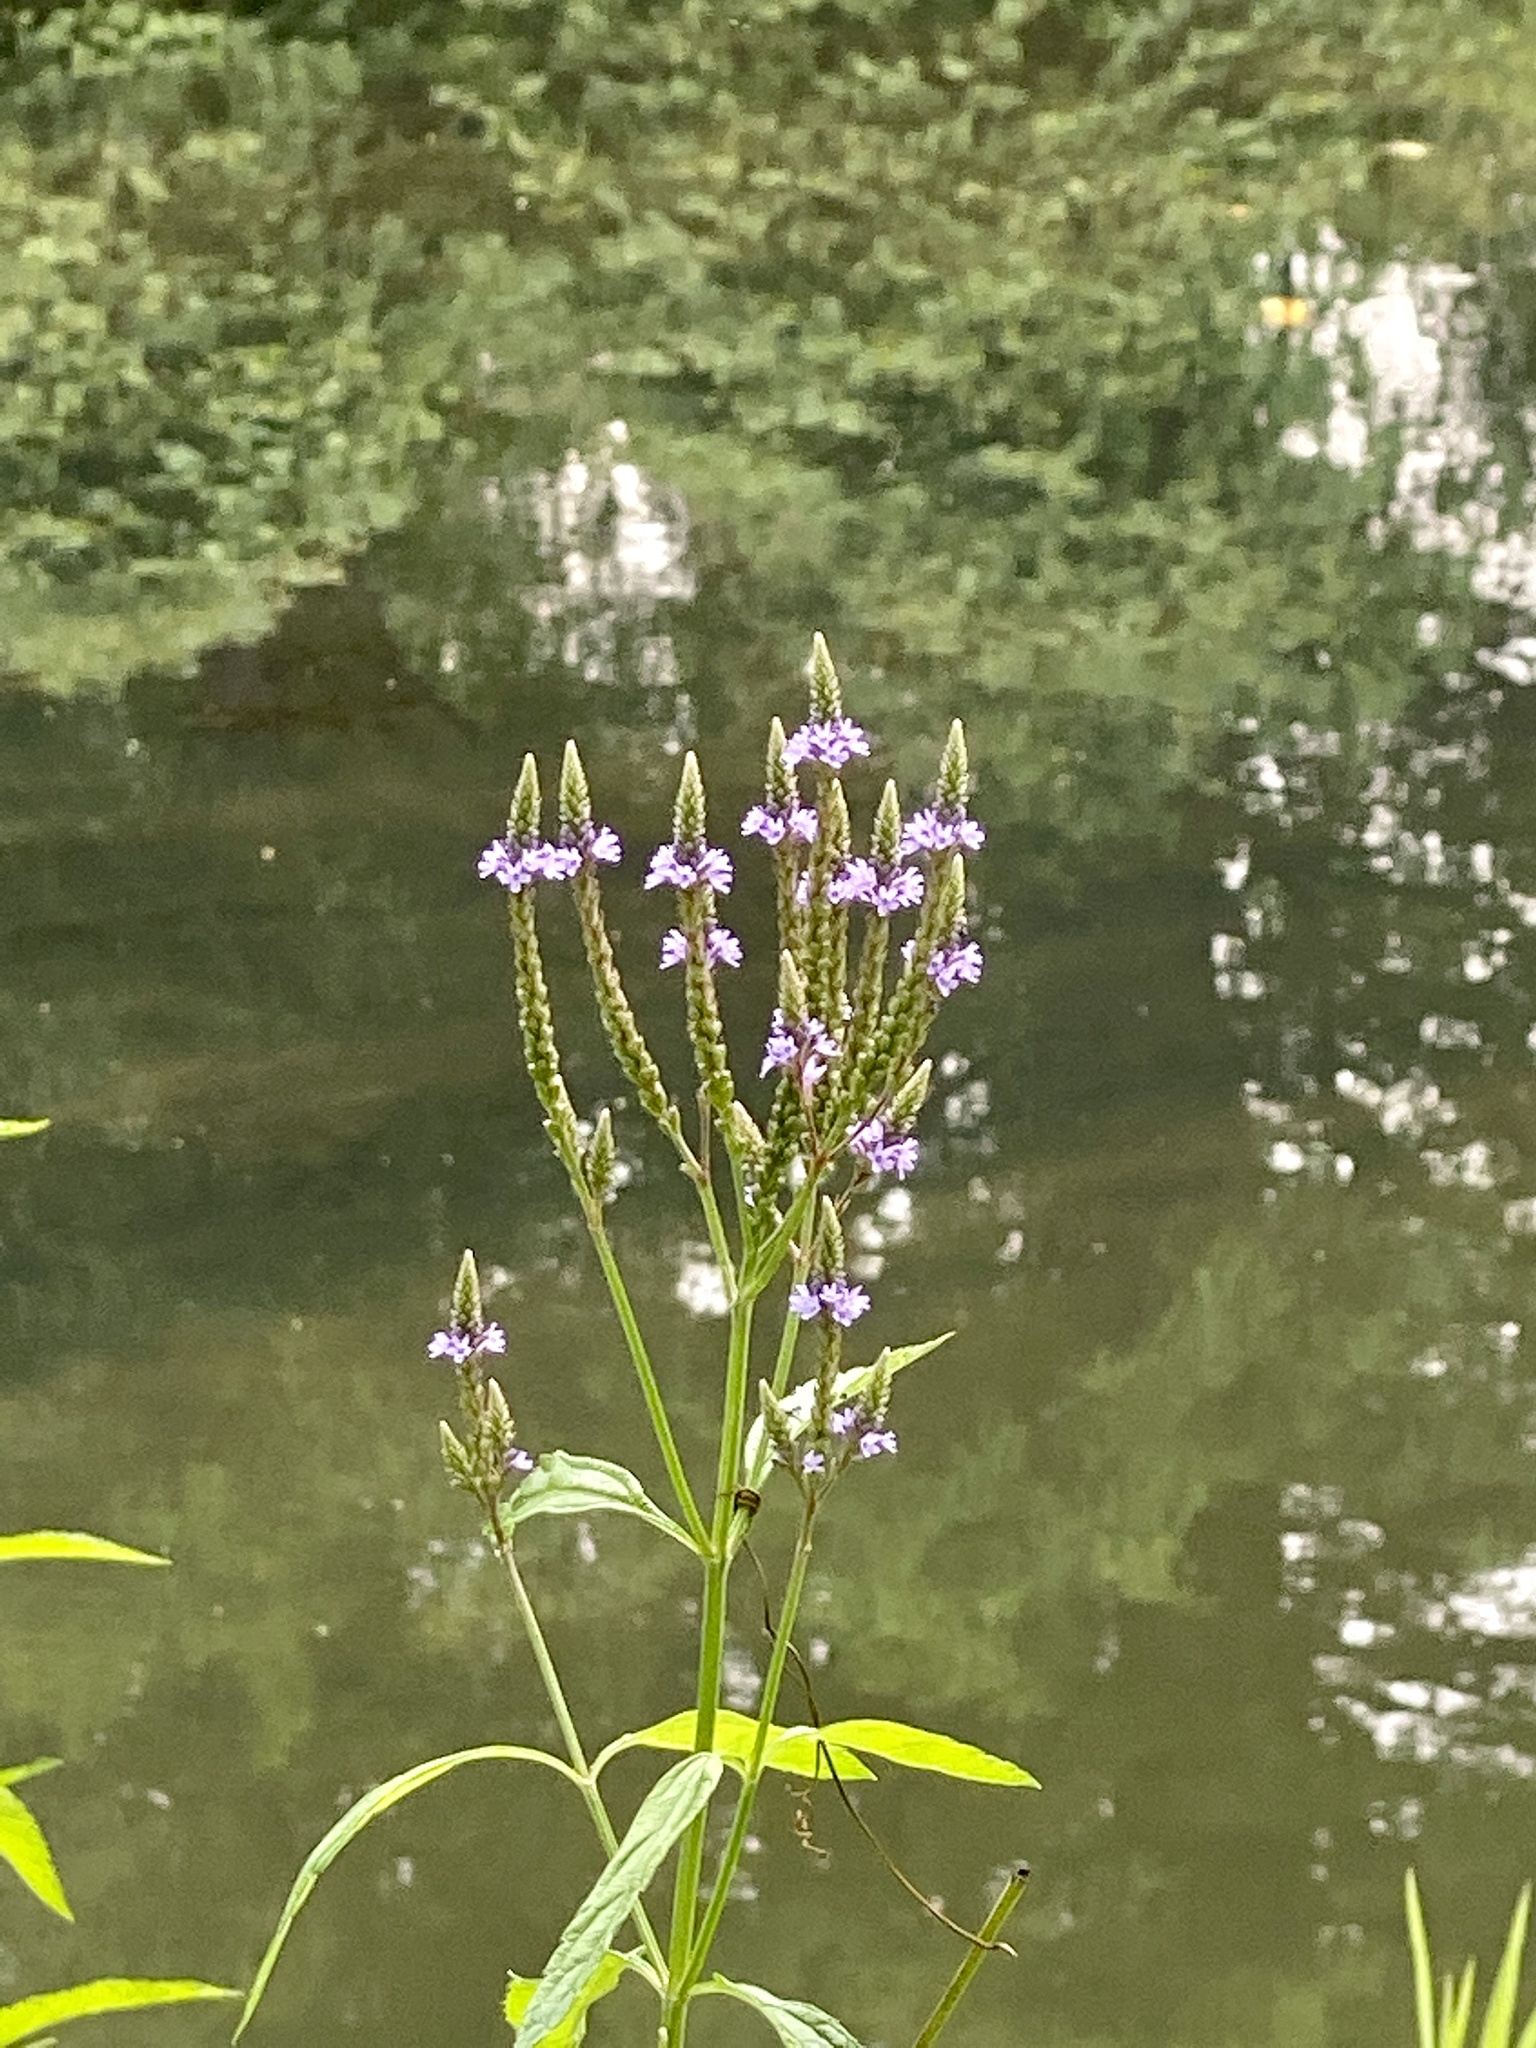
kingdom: Plantae
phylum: Tracheophyta
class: Magnoliopsida
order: Lamiales
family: Verbenaceae
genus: Verbena
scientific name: Verbena hastata
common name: American blue vervain
